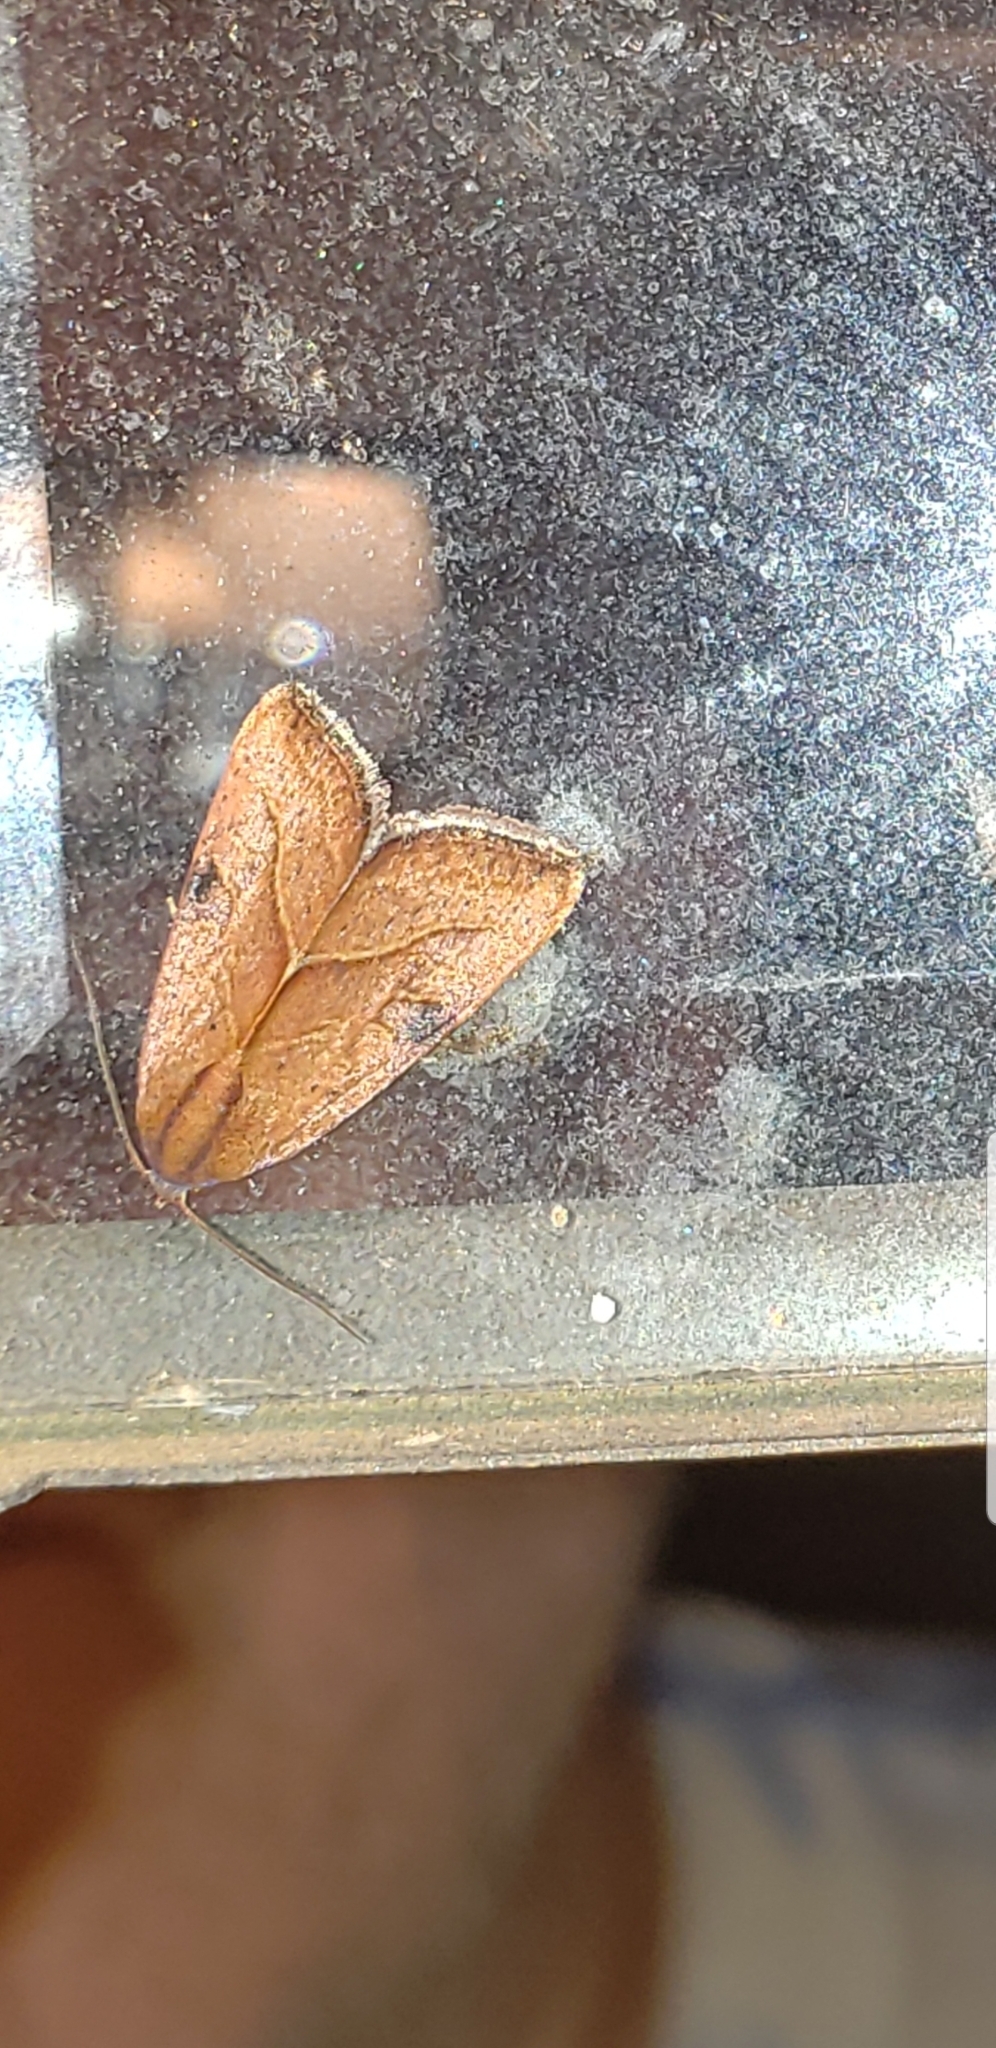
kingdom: Animalia
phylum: Arthropoda
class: Insecta
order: Lepidoptera
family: Noctuidae
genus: Galgula
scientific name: Galgula partita
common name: Wedgeling
